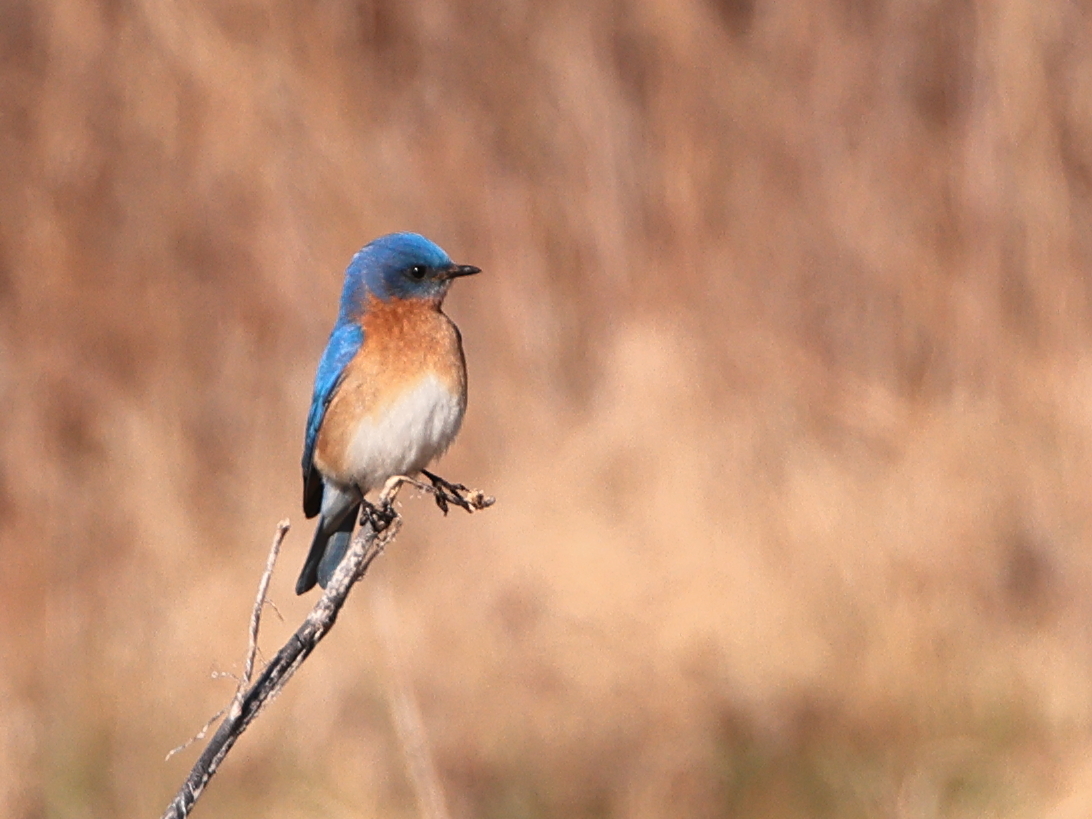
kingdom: Animalia
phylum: Chordata
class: Aves
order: Passeriformes
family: Turdidae
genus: Sialia
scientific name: Sialia sialis
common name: Eastern bluebird
